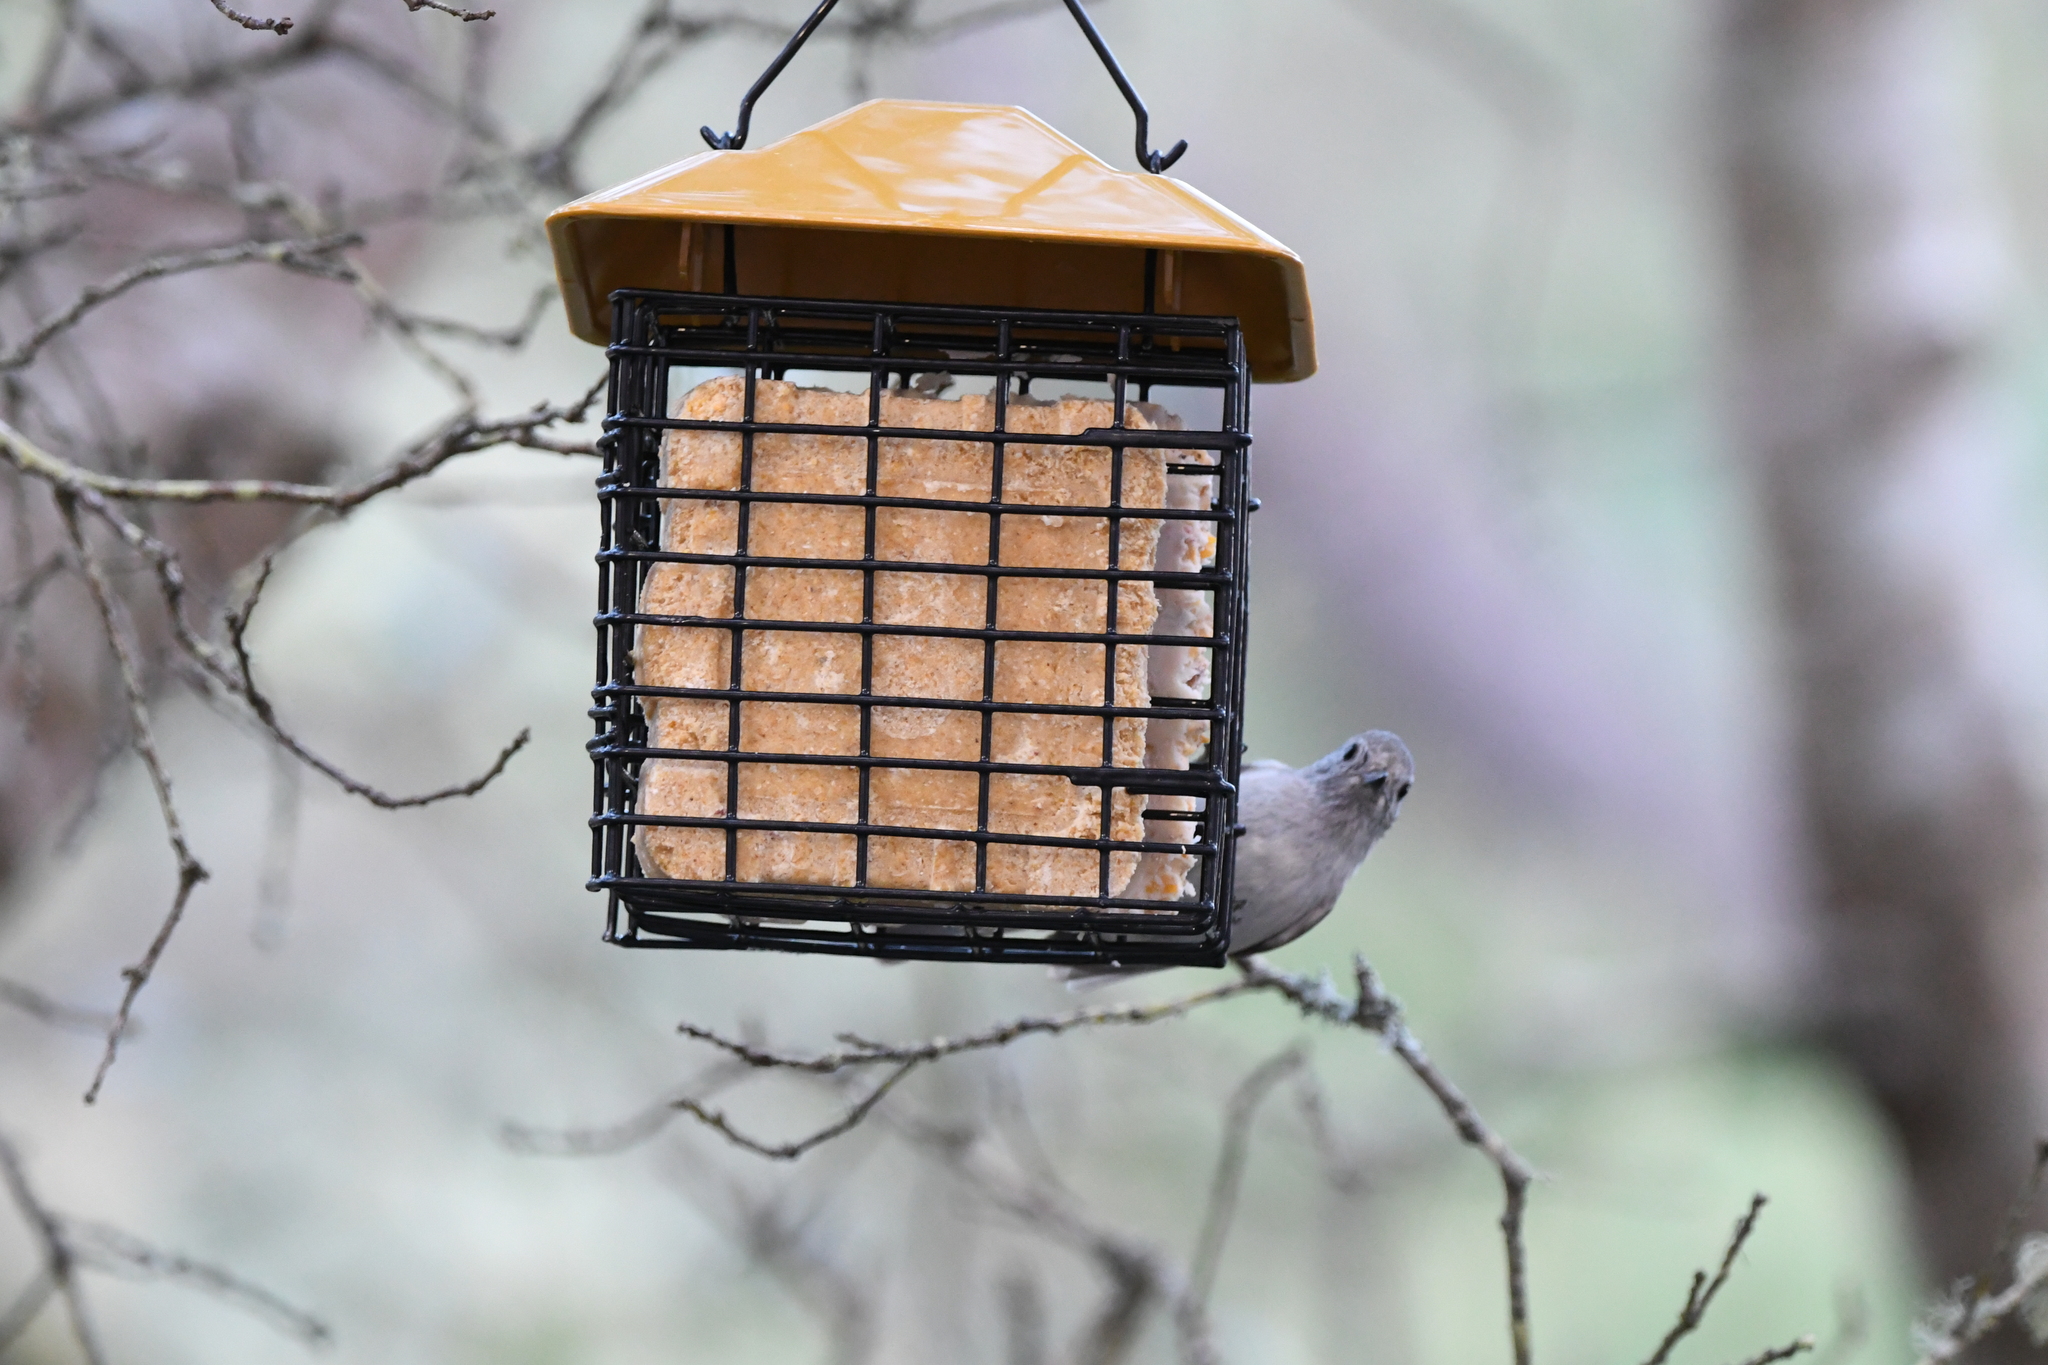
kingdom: Animalia
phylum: Chordata
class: Aves
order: Passeriformes
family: Paridae
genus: Baeolophus
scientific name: Baeolophus inornatus
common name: Oak titmouse
